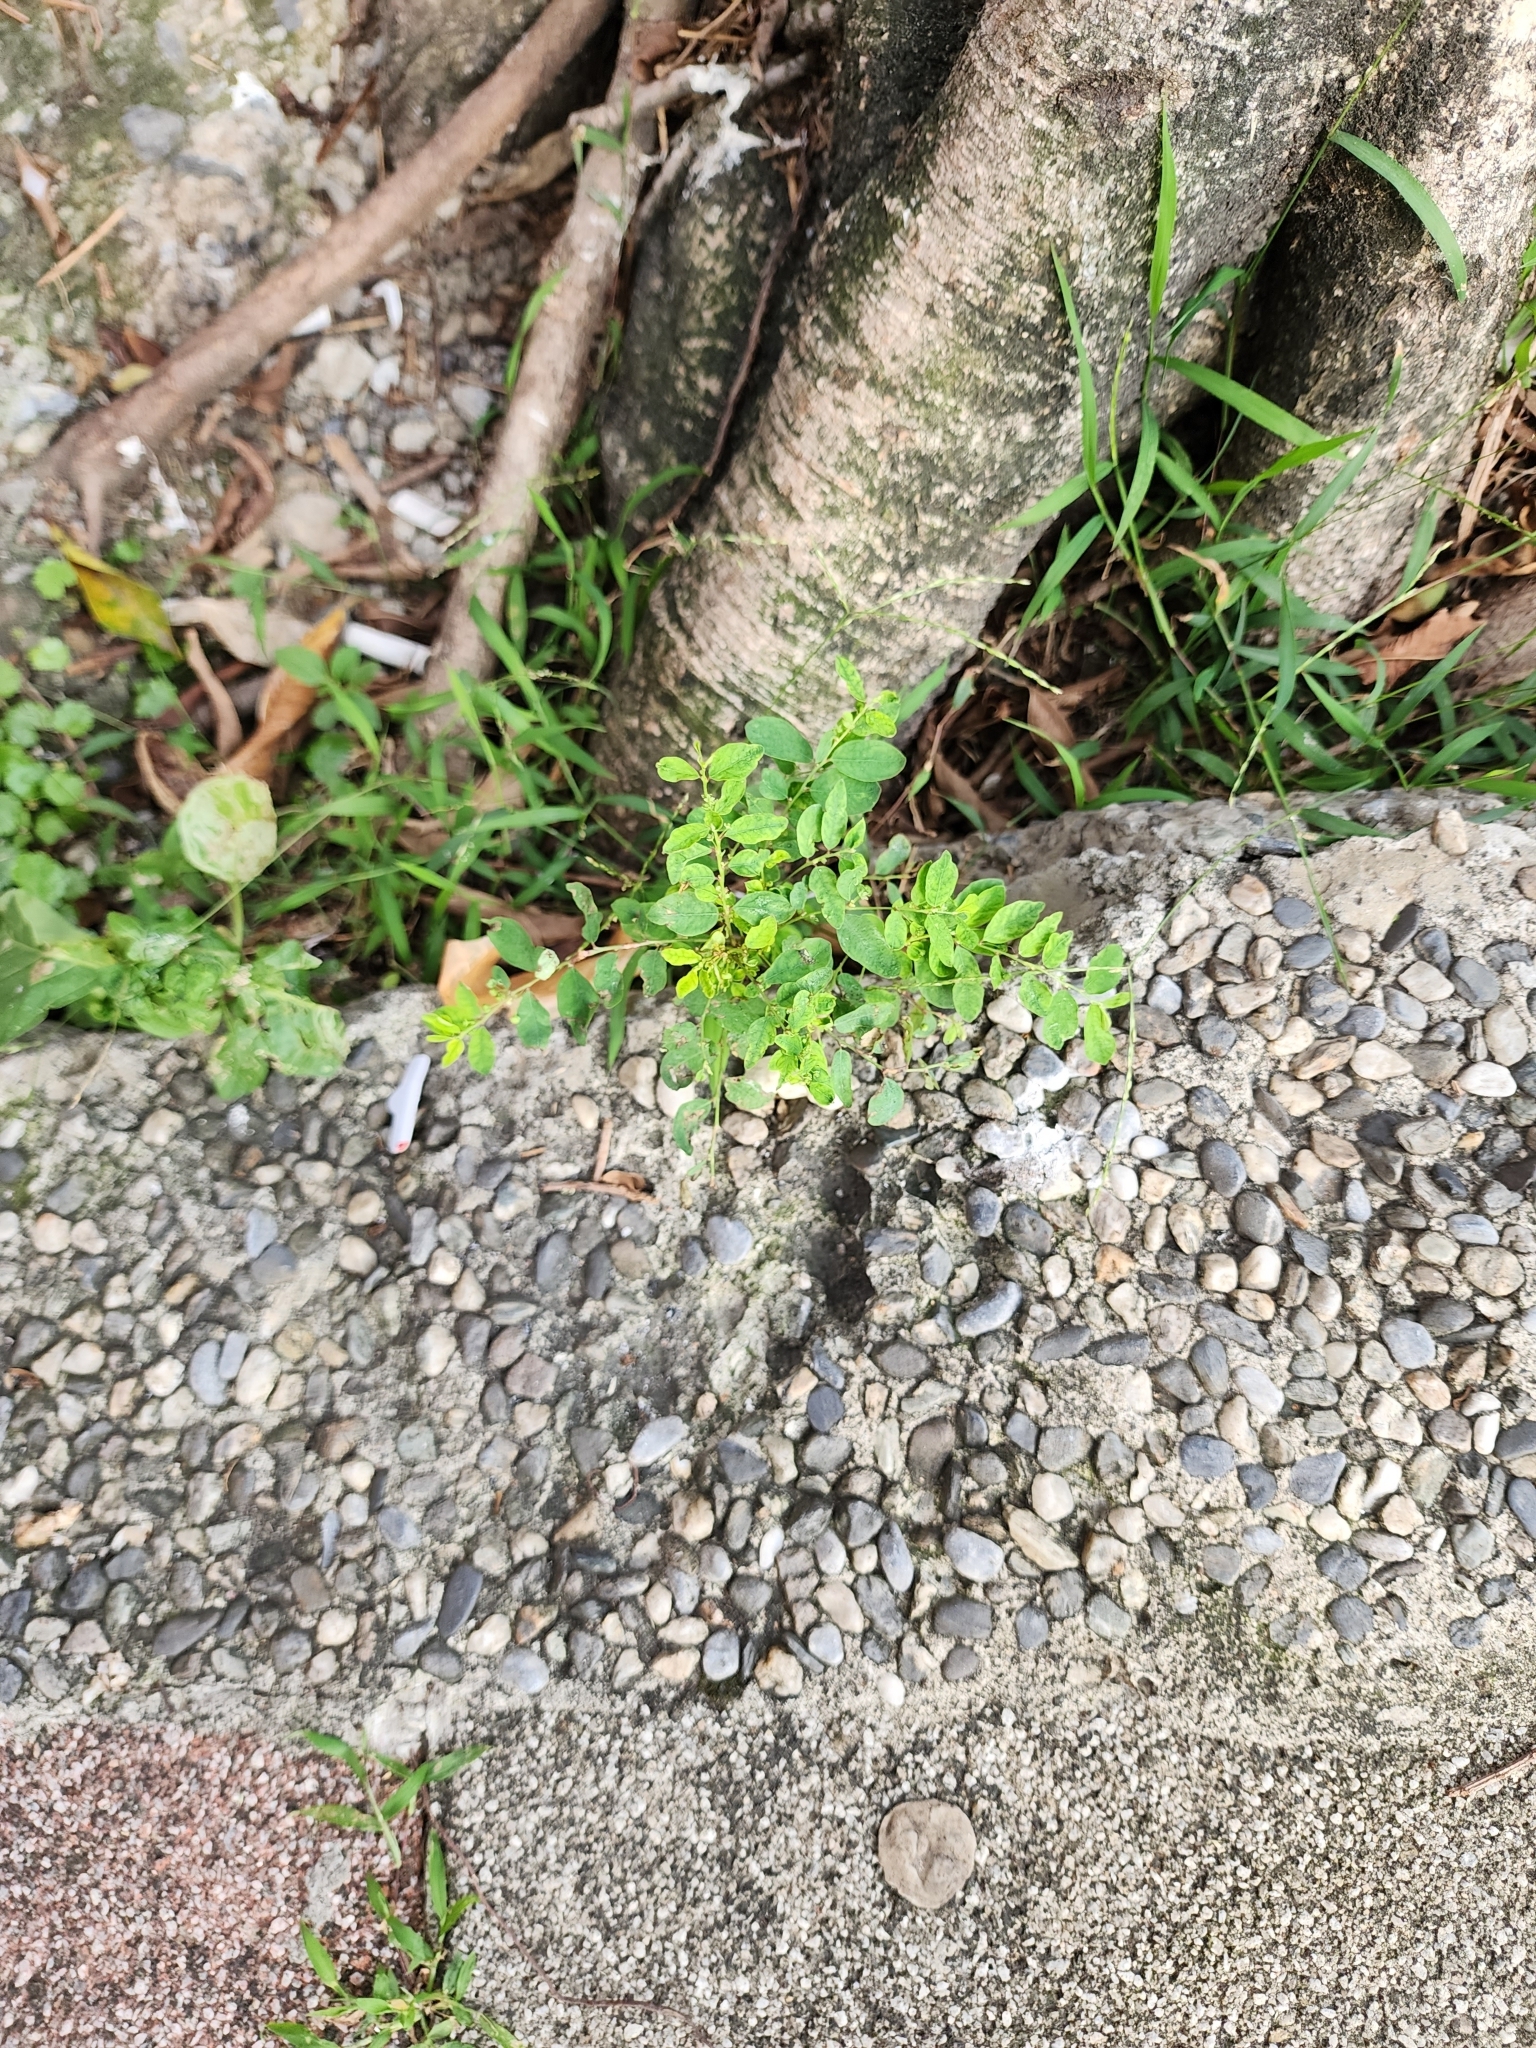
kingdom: Plantae
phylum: Tracheophyta
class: Magnoliopsida
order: Malpighiales
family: Phyllanthaceae
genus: Phyllanthus
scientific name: Phyllanthus tenellus
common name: Mascarene island leaf-flower
